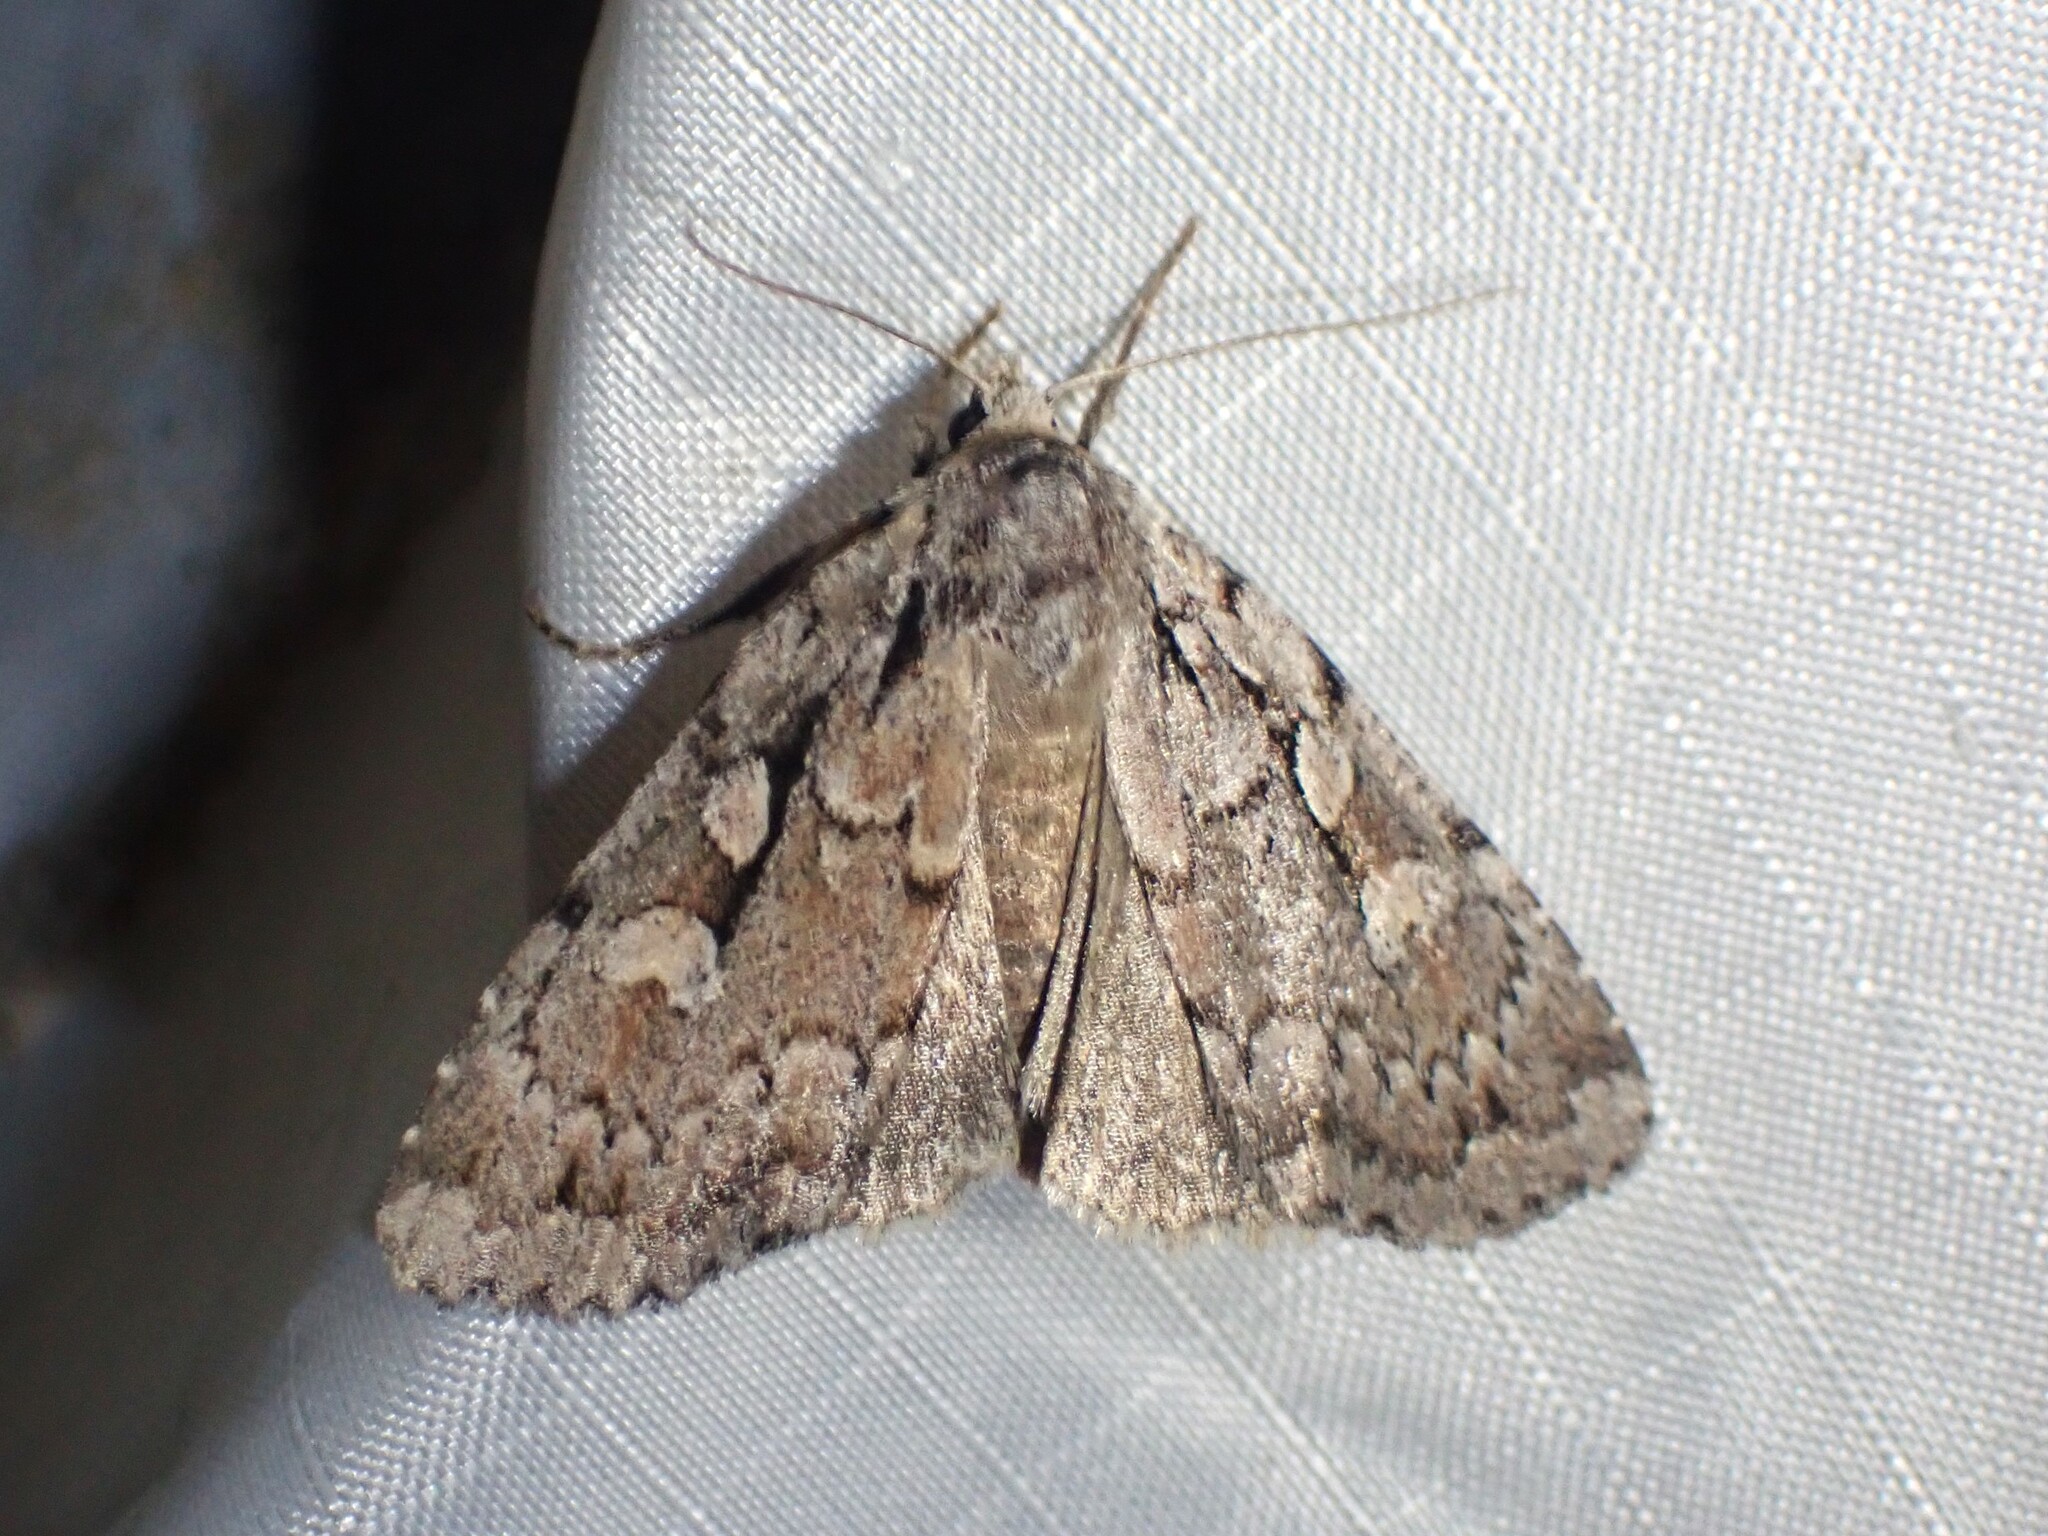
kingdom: Animalia
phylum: Arthropoda
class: Insecta
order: Lepidoptera
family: Noctuidae
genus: Xestia
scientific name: Xestia badicollis
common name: Northern variable dart
